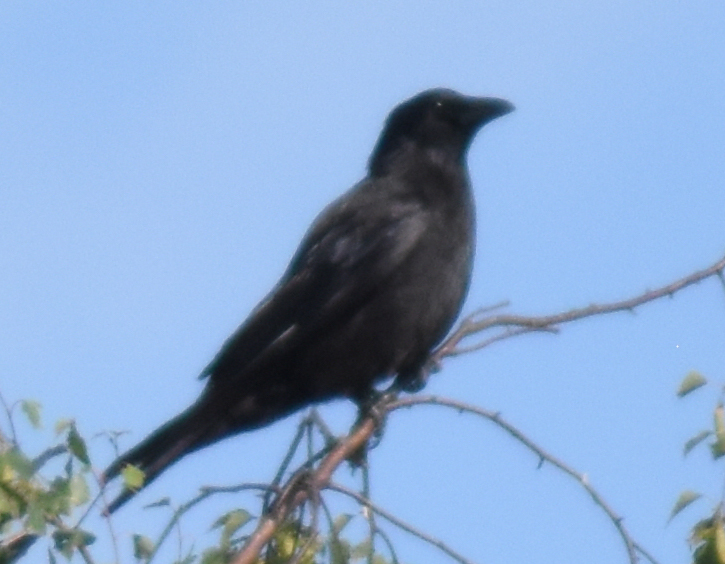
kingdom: Animalia
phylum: Chordata
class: Aves
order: Passeriformes
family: Corvidae
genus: Corvus
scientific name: Corvus corone
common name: Carrion crow
